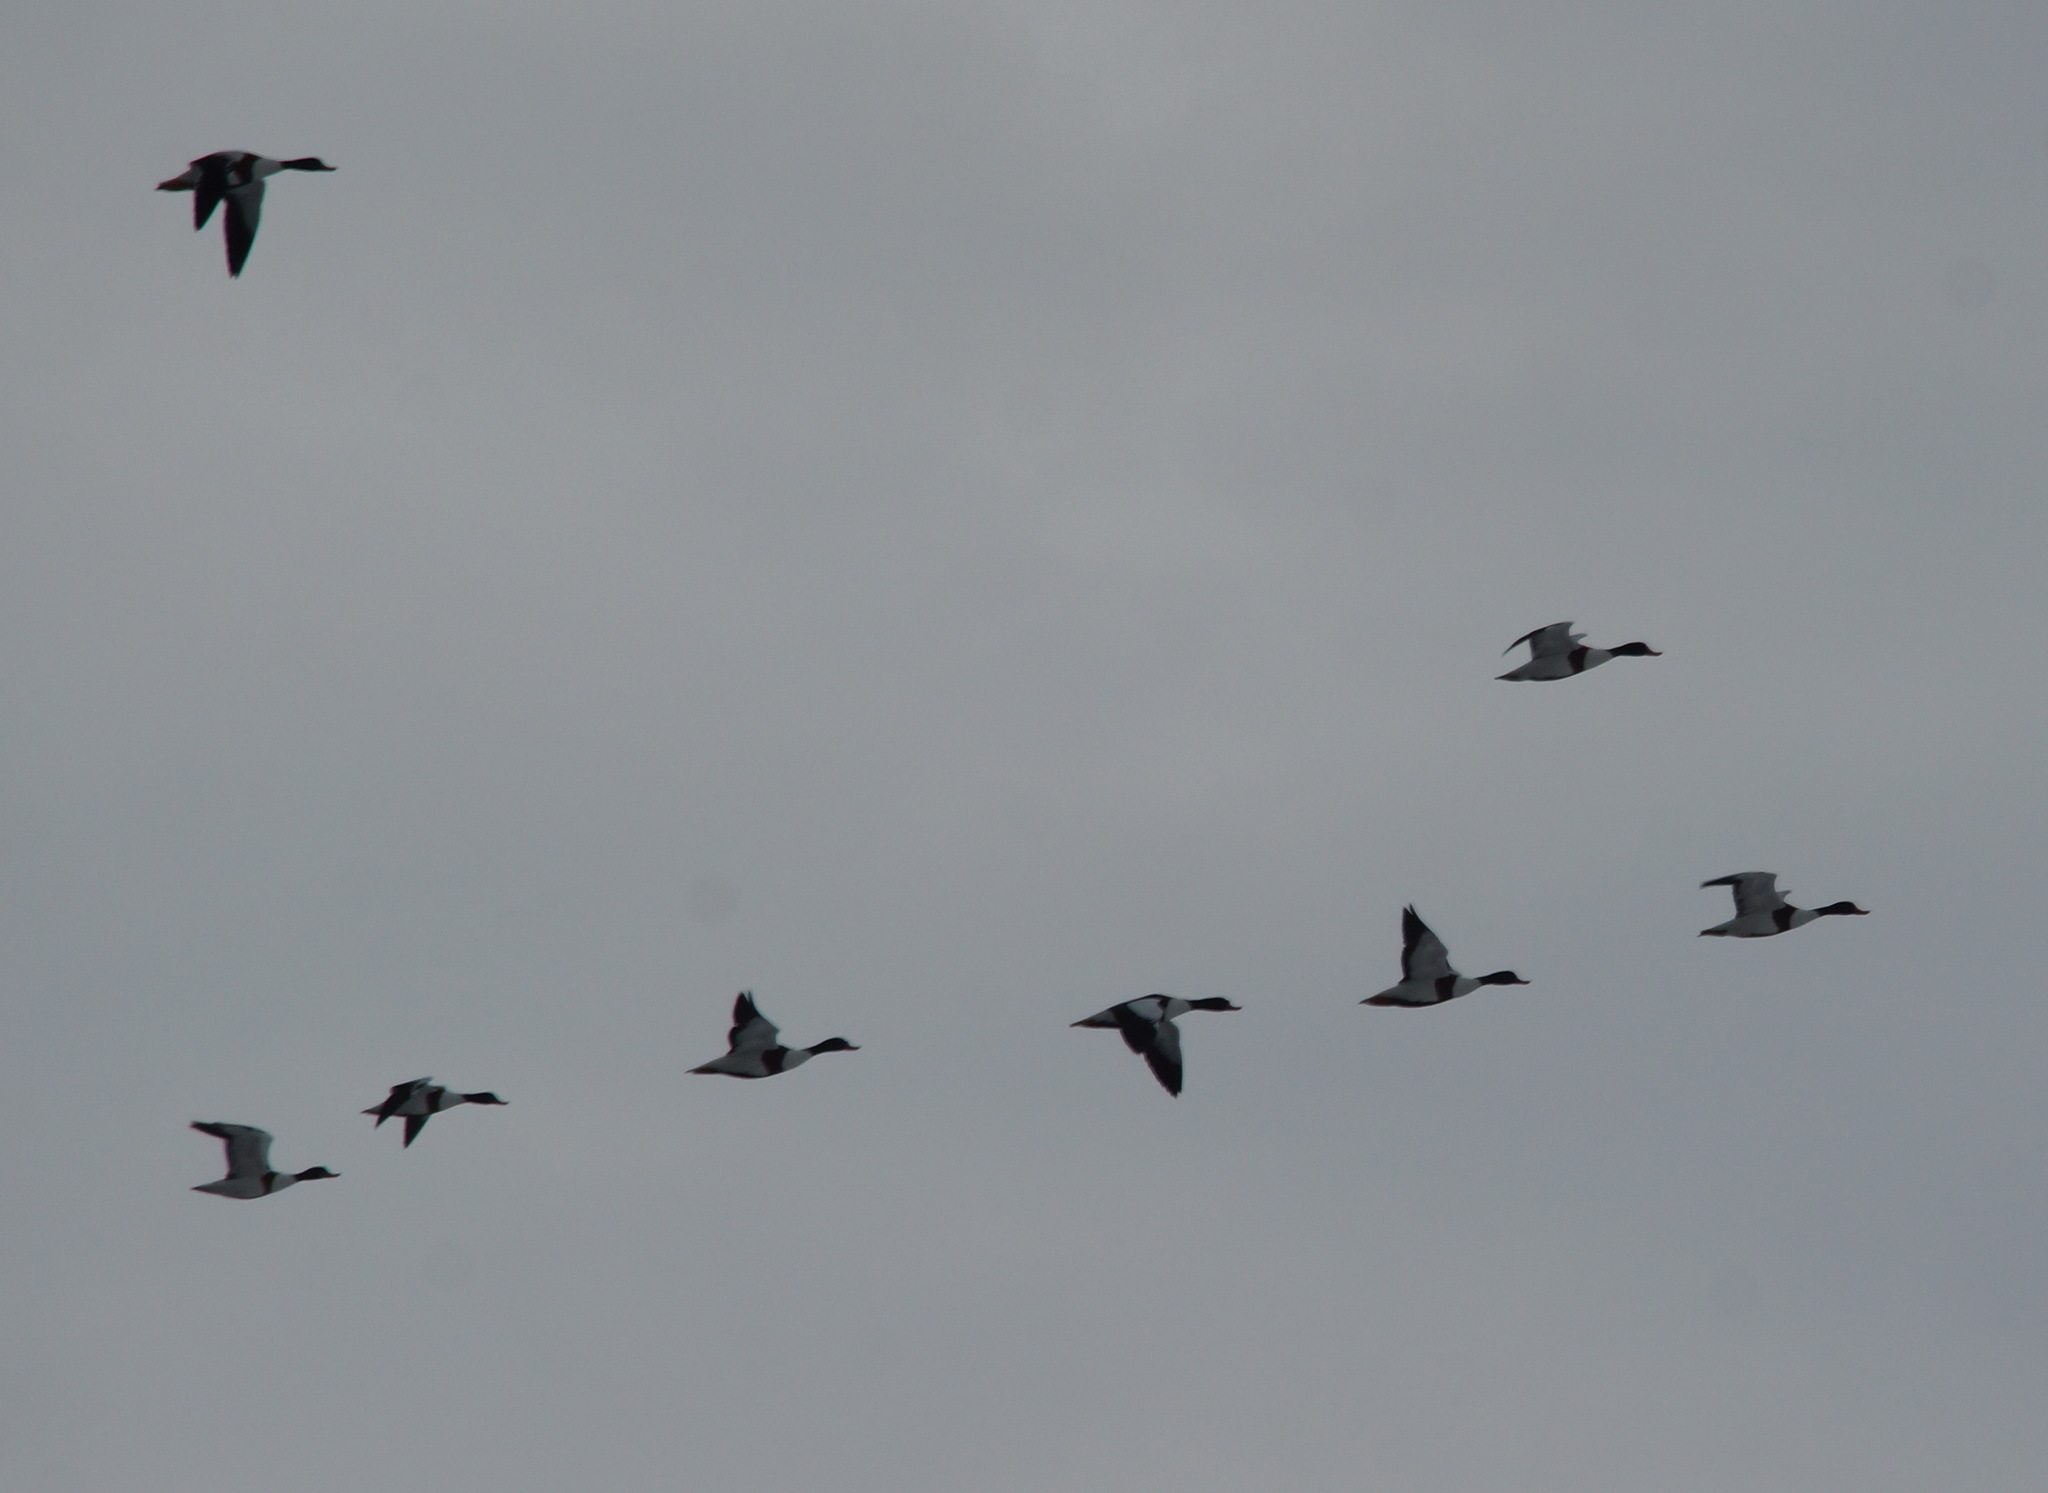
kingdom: Animalia
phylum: Chordata
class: Aves
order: Anseriformes
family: Anatidae
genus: Tadorna
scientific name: Tadorna tadorna
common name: Common shelduck
